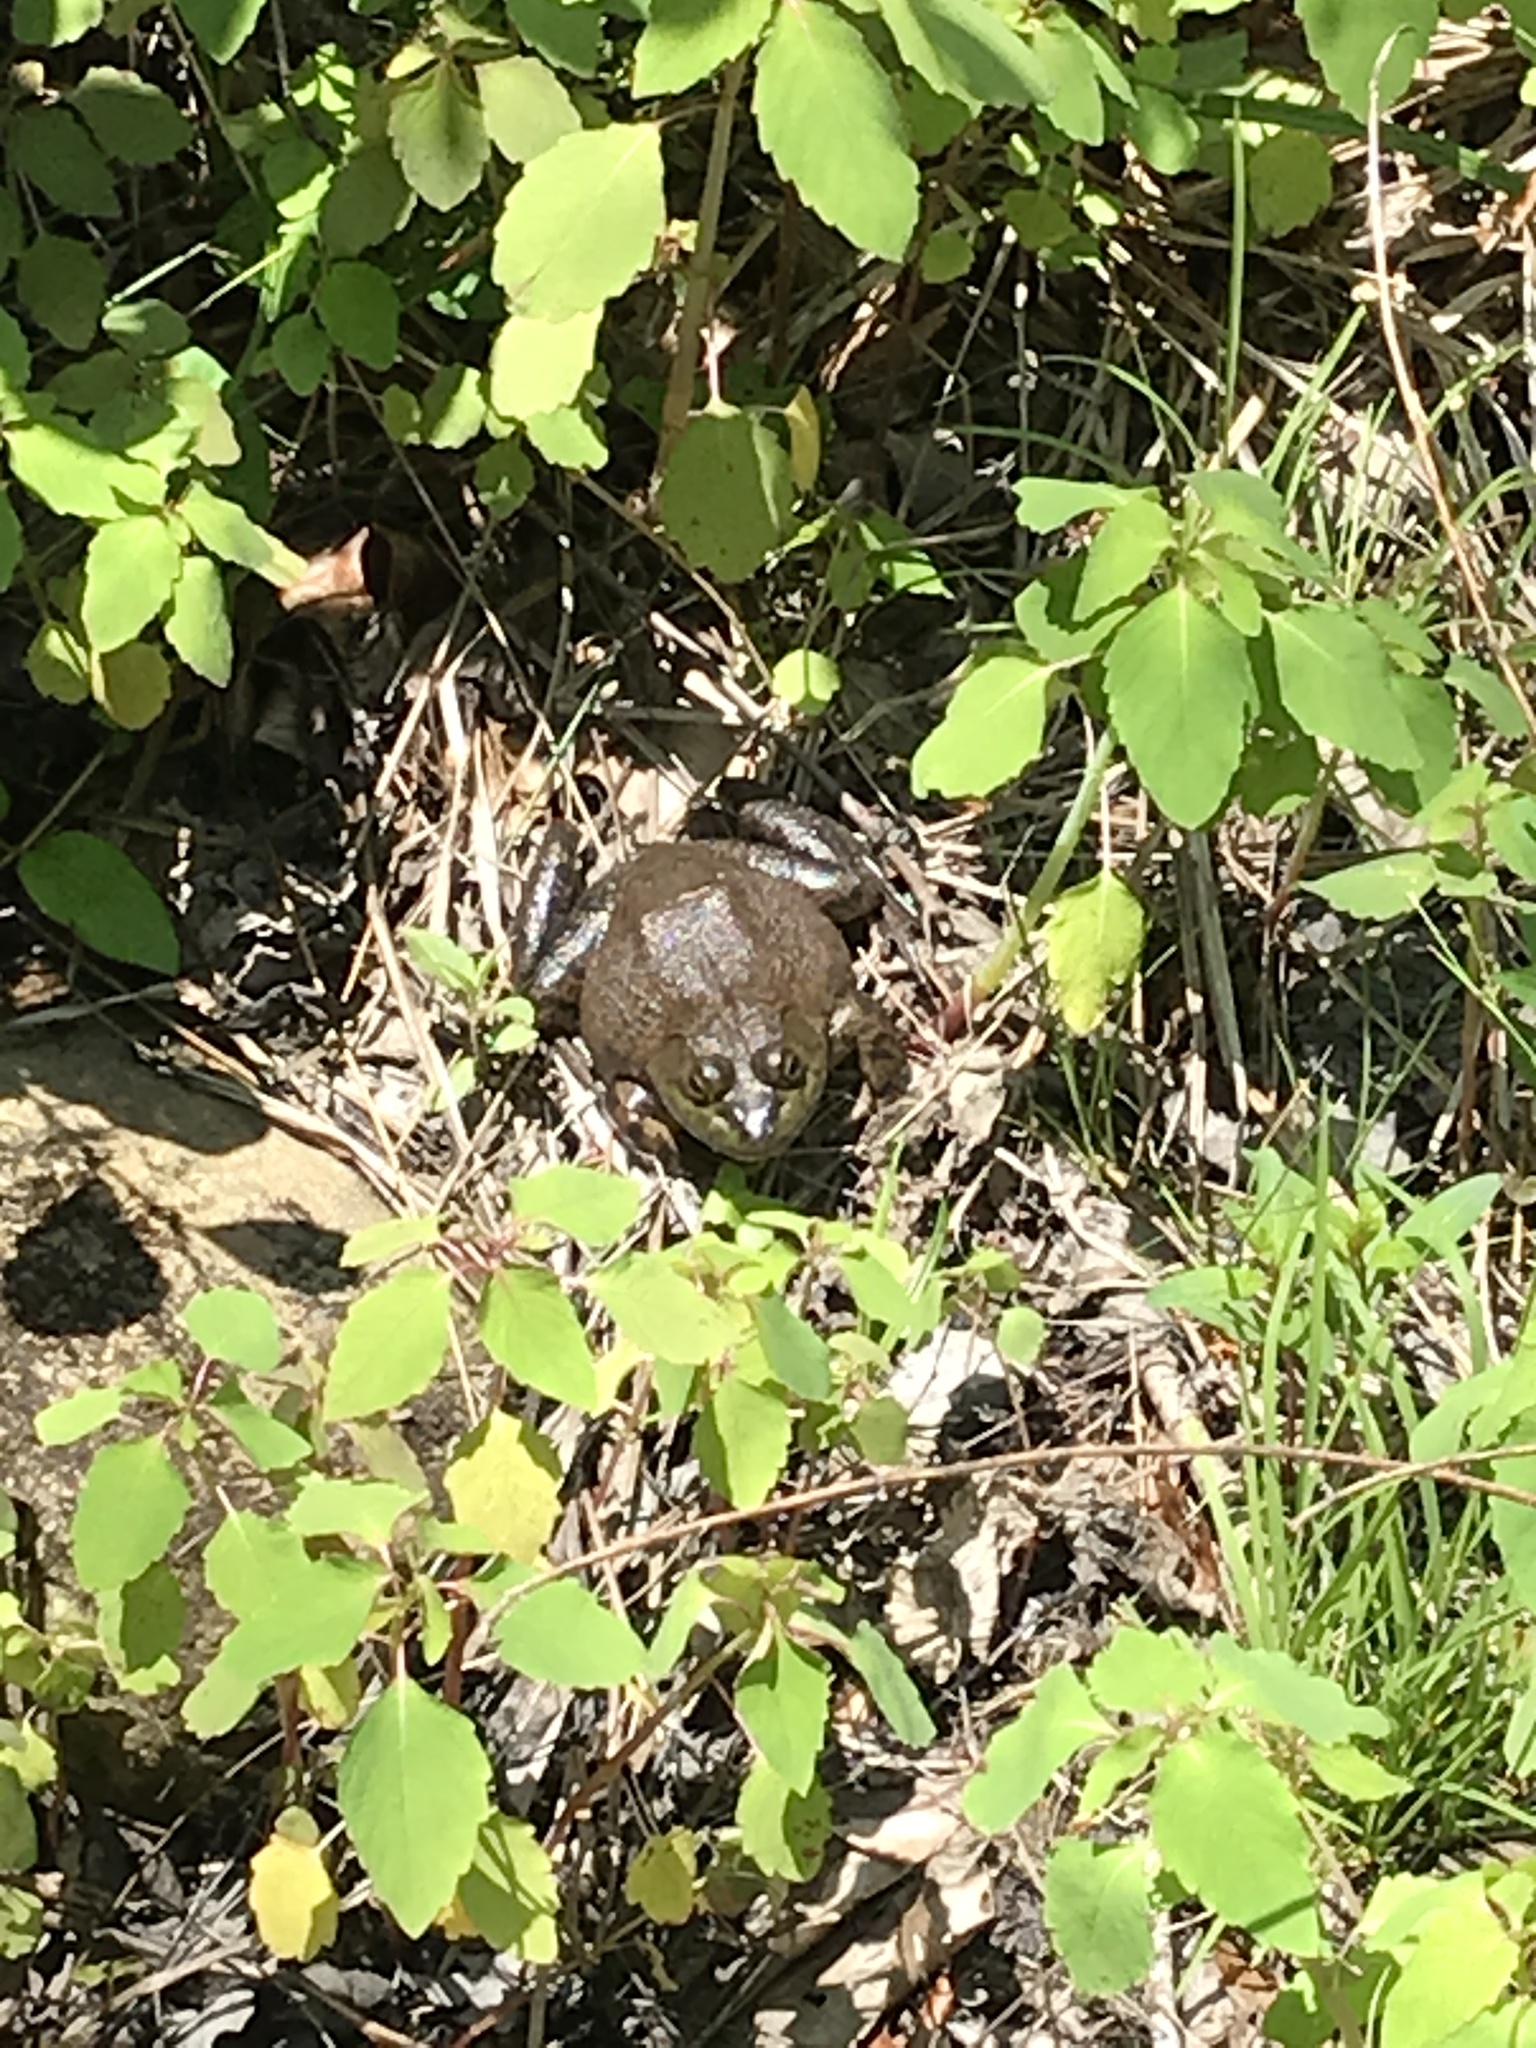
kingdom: Animalia
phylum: Chordata
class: Amphibia
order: Anura
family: Ranidae
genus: Lithobates
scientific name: Lithobates catesbeianus
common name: American bullfrog
